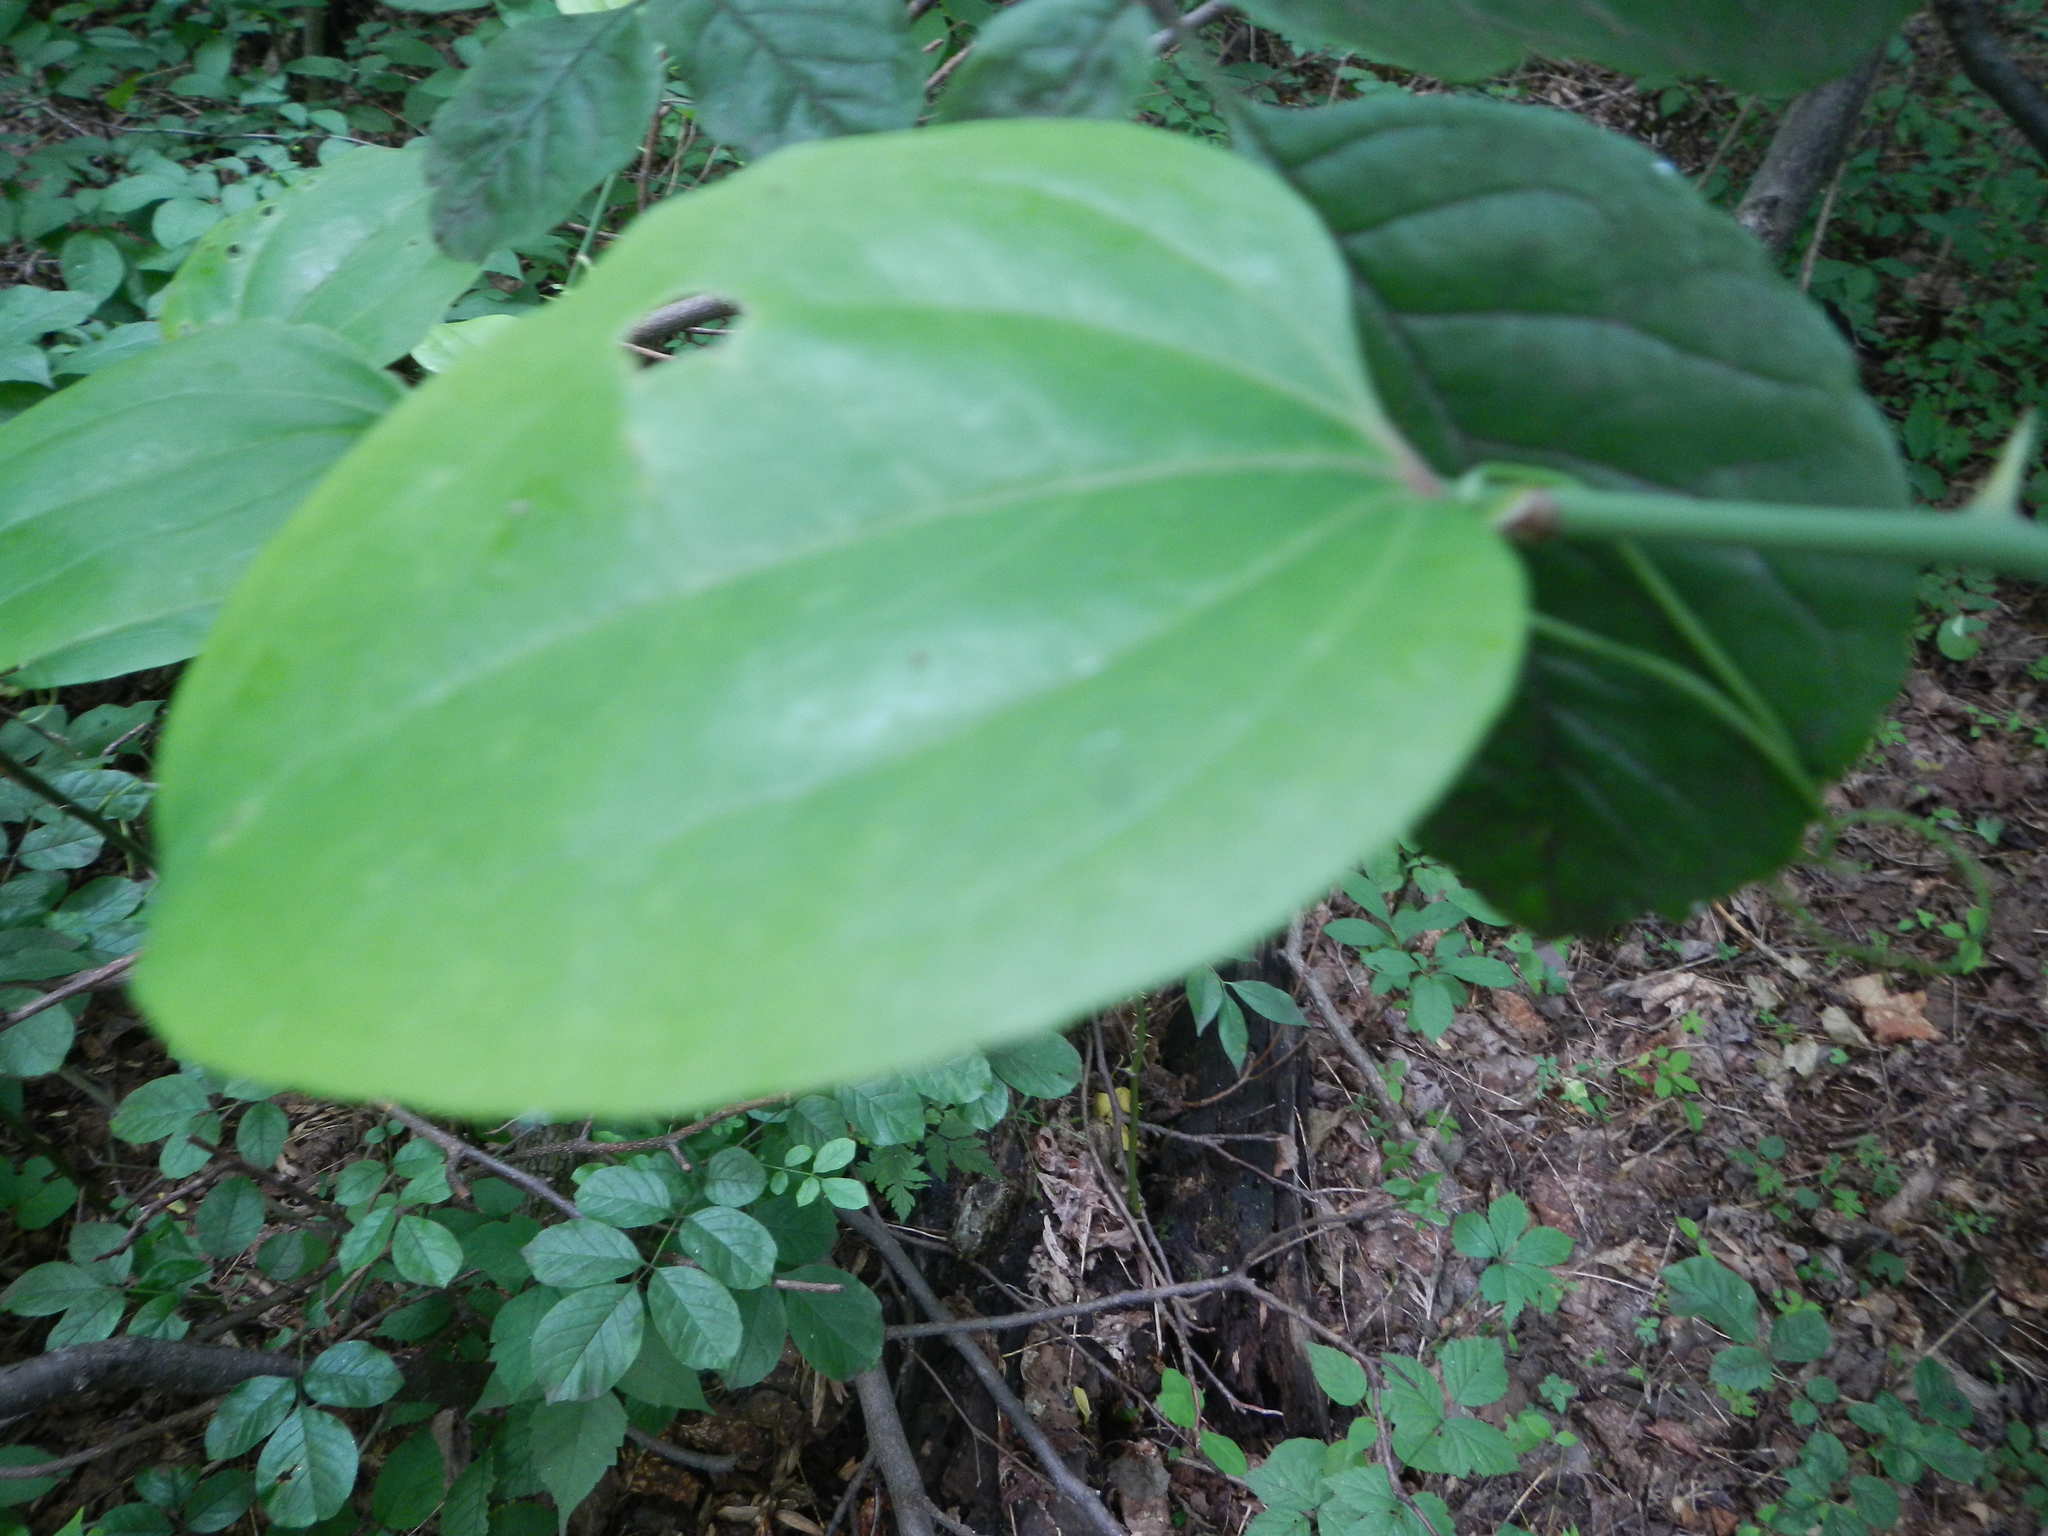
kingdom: Plantae
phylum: Tracheophyta
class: Liliopsida
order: Liliales
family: Smilacaceae
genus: Smilax
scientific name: Smilax rotundifolia
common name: Bullbriar
